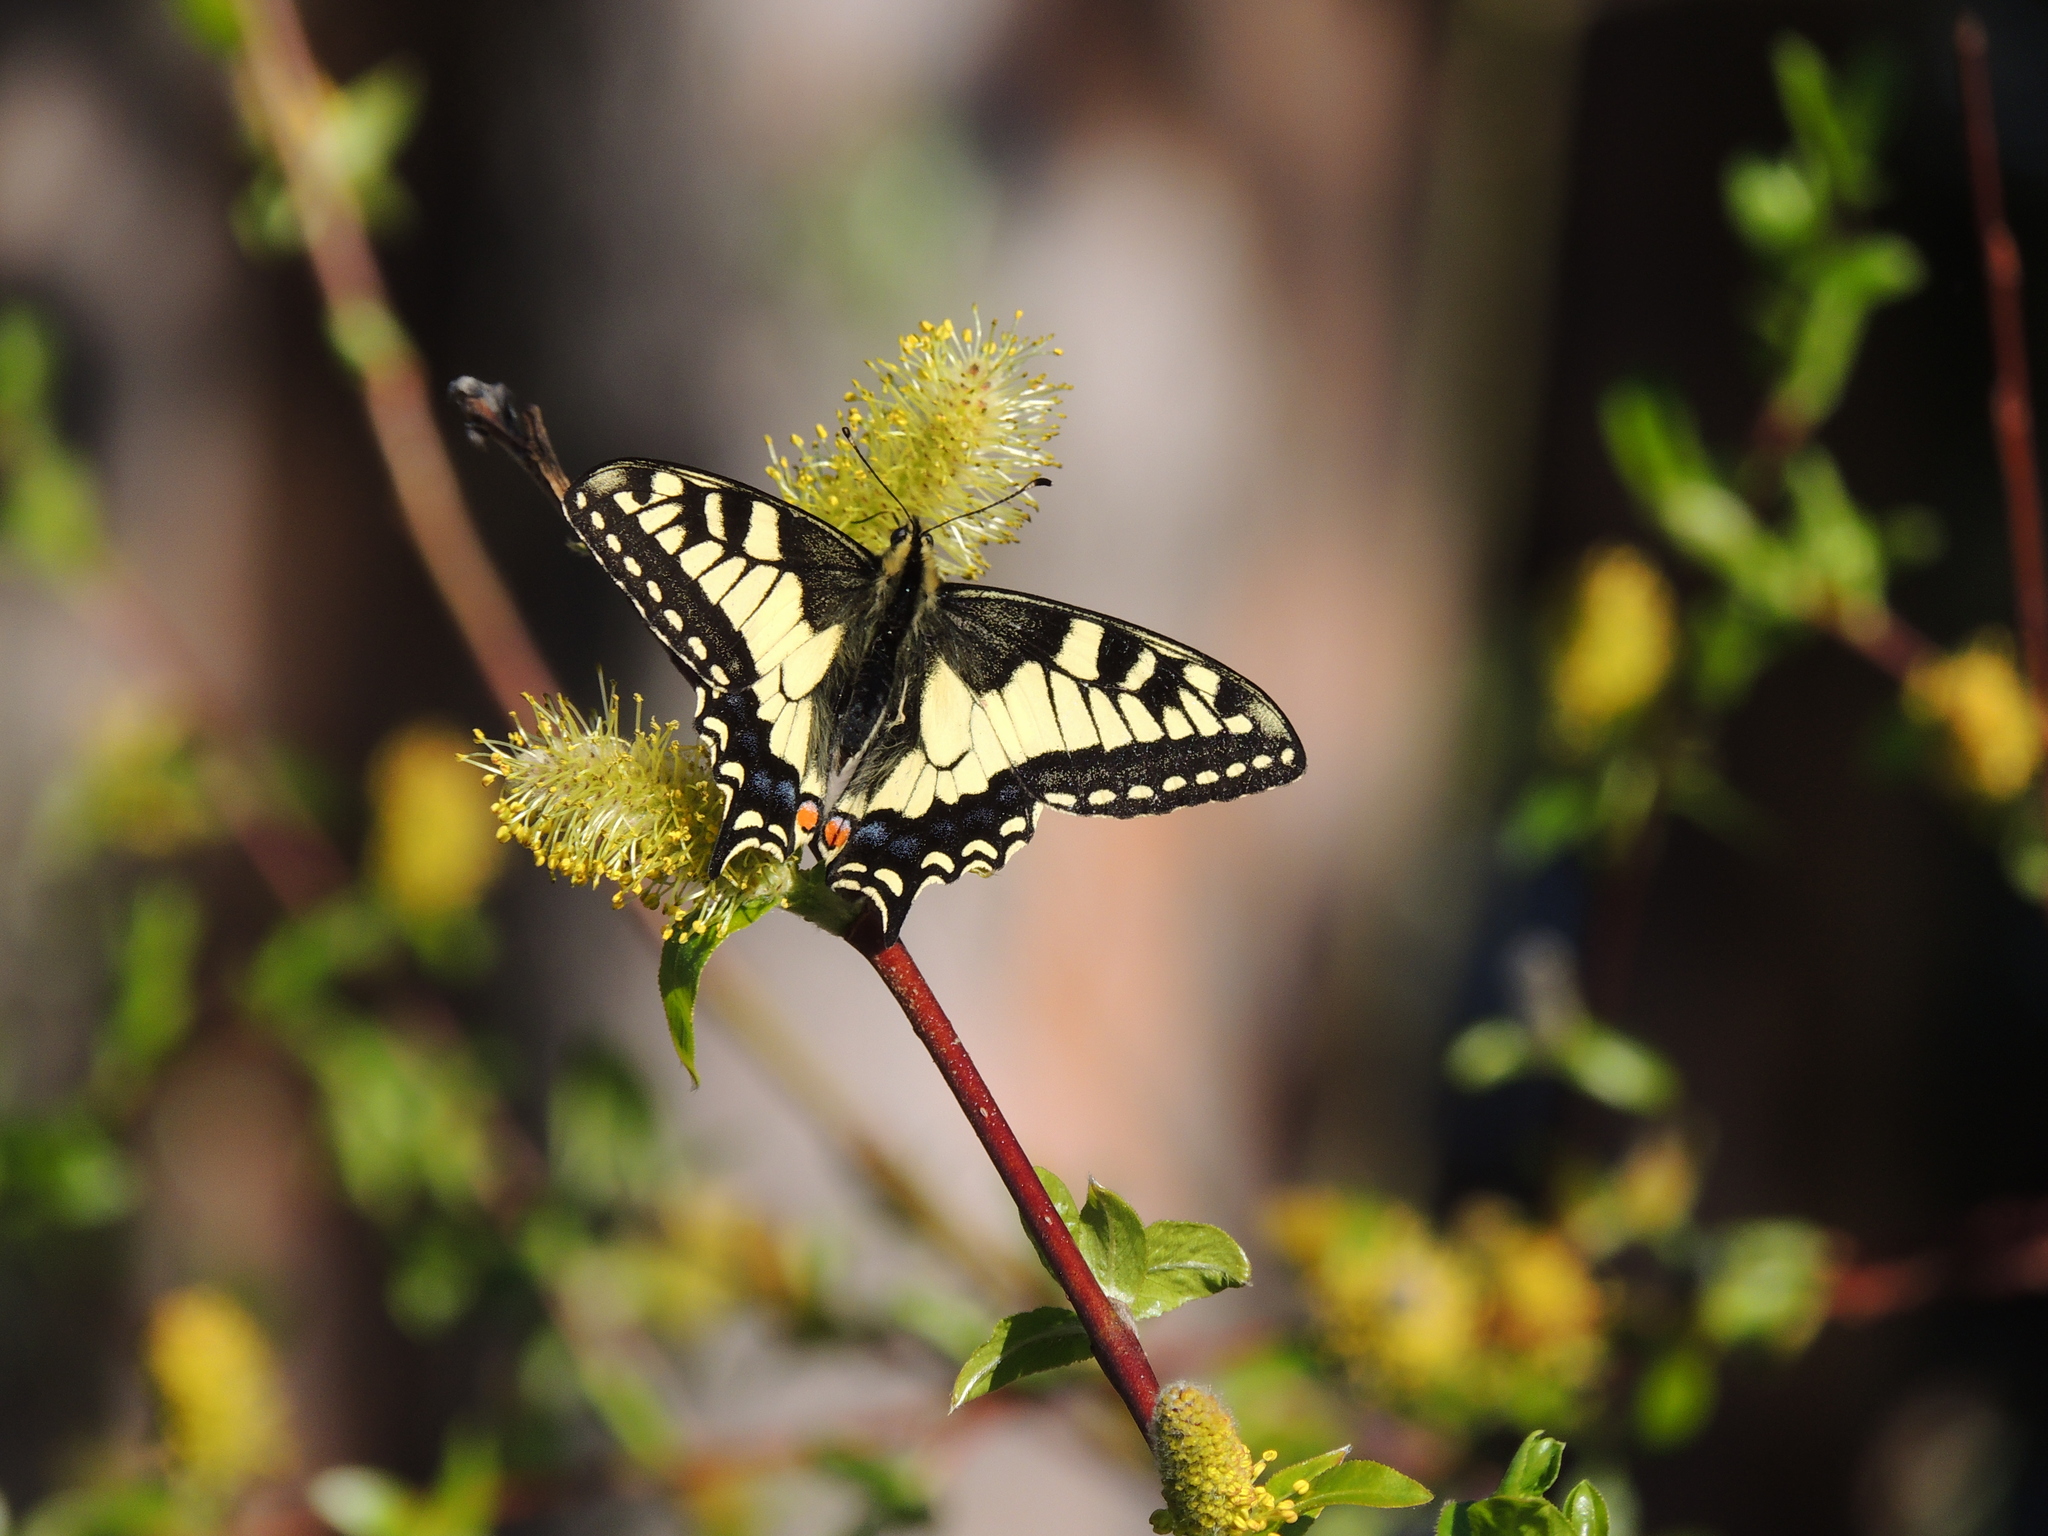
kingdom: Animalia
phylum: Arthropoda
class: Insecta
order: Lepidoptera
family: Papilionidae
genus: Papilio
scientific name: Papilio machaon
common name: Swallowtail
